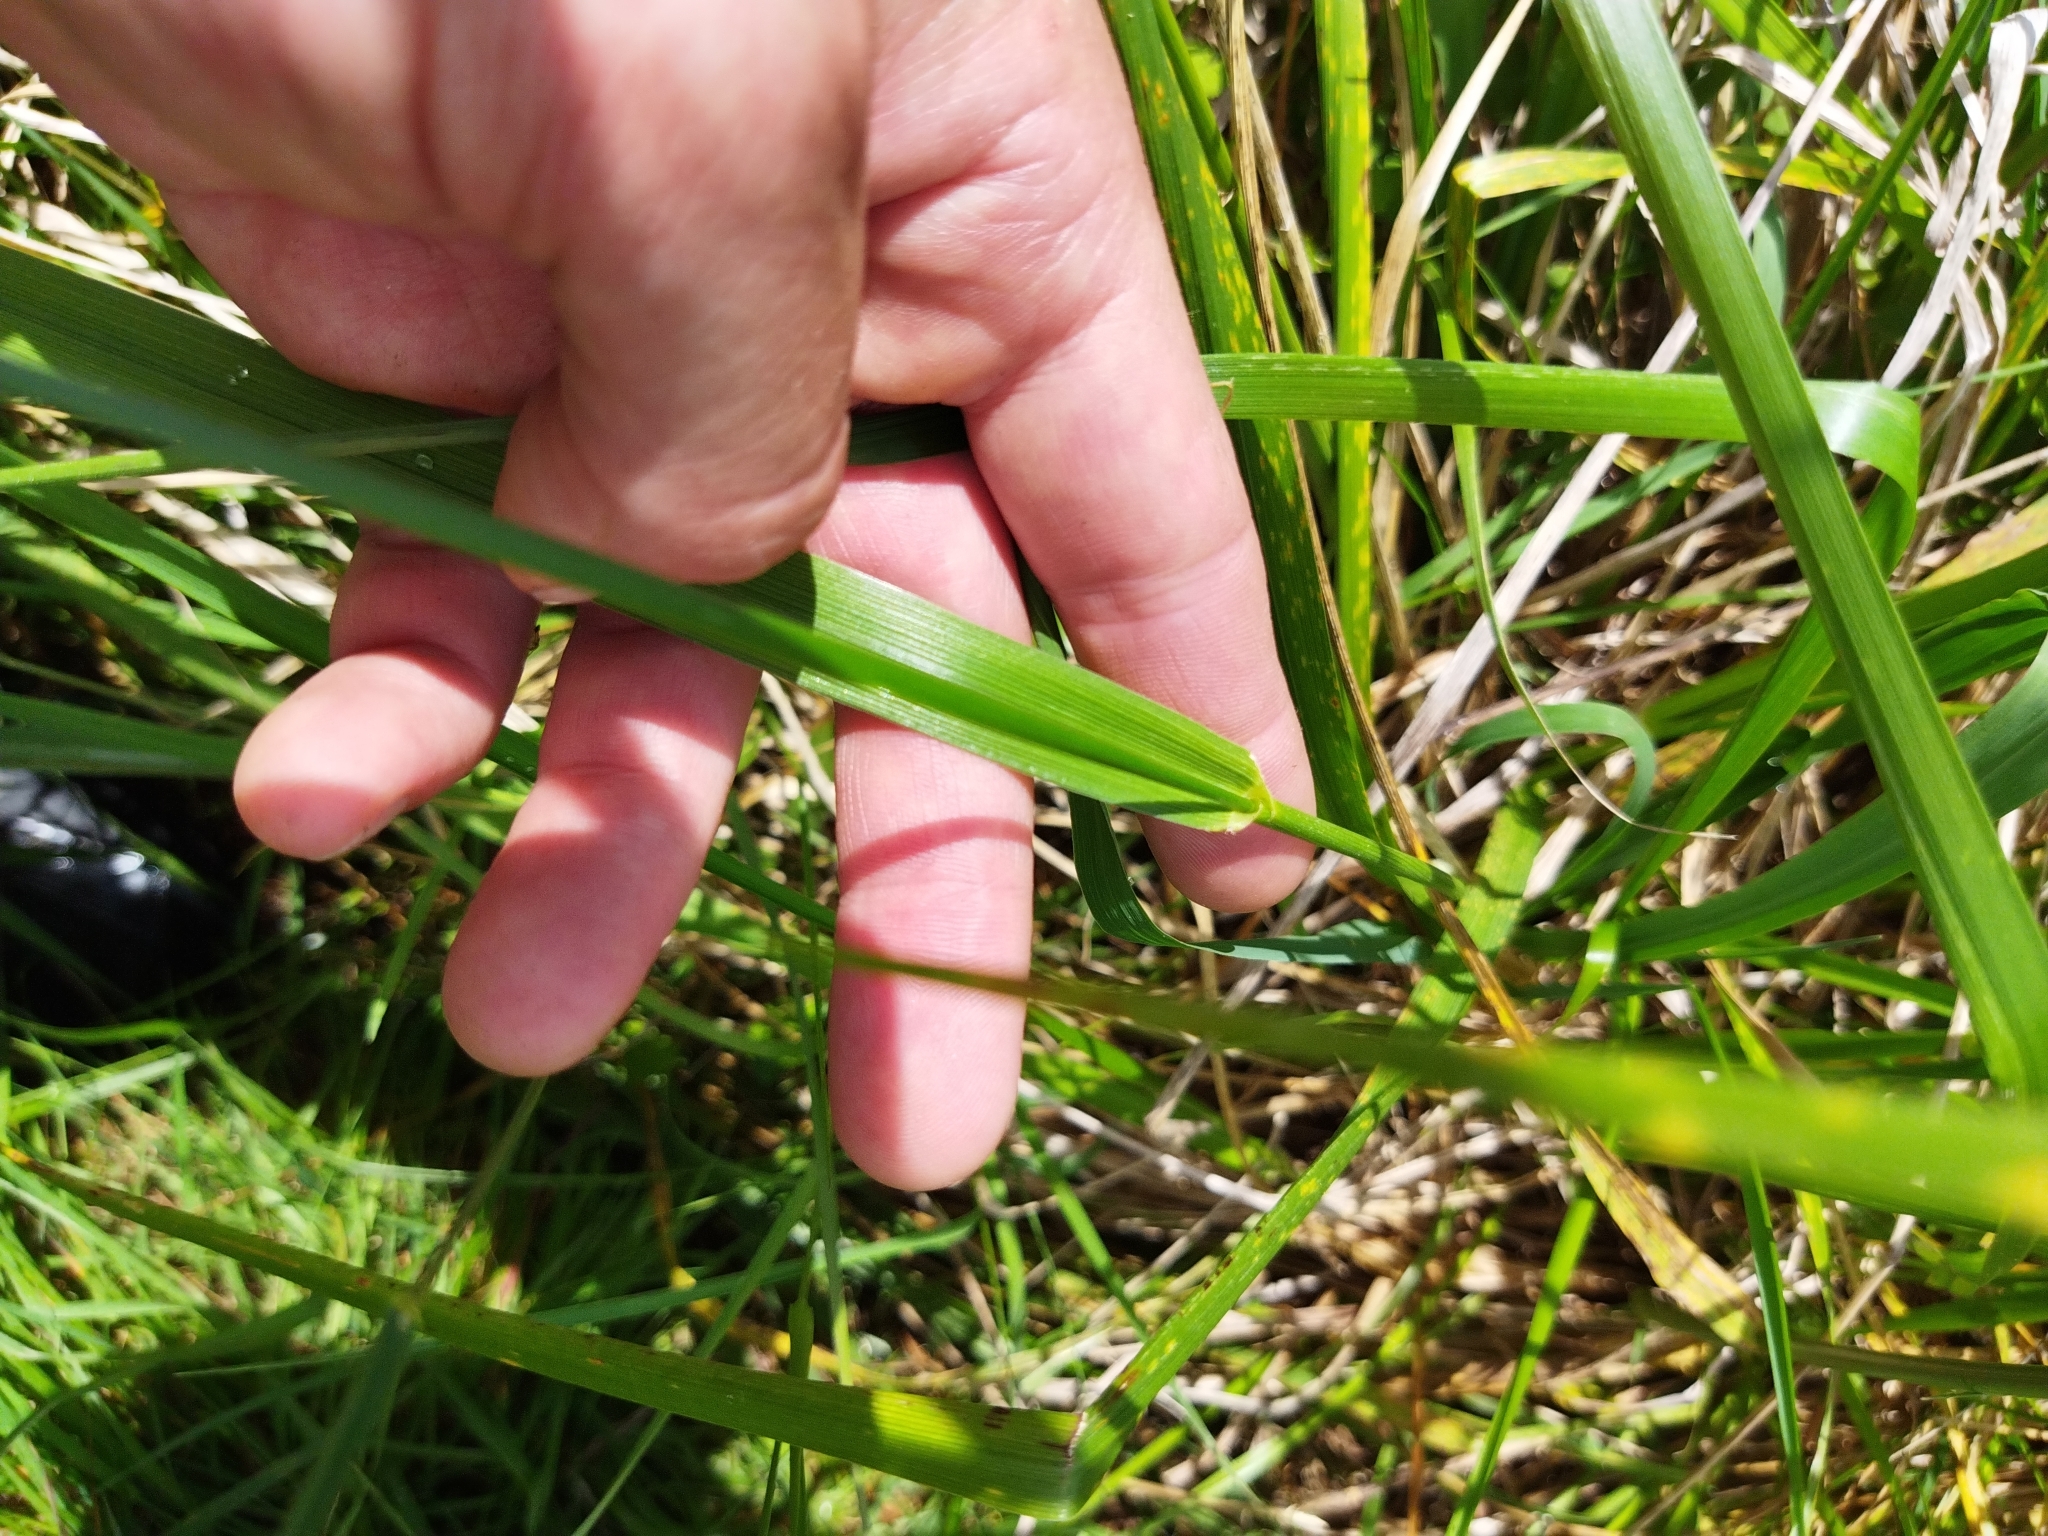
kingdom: Plantae
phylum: Tracheophyta
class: Liliopsida
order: Poales
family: Poaceae
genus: Lolium
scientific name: Lolium arundinaceum
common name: Reed fescue
